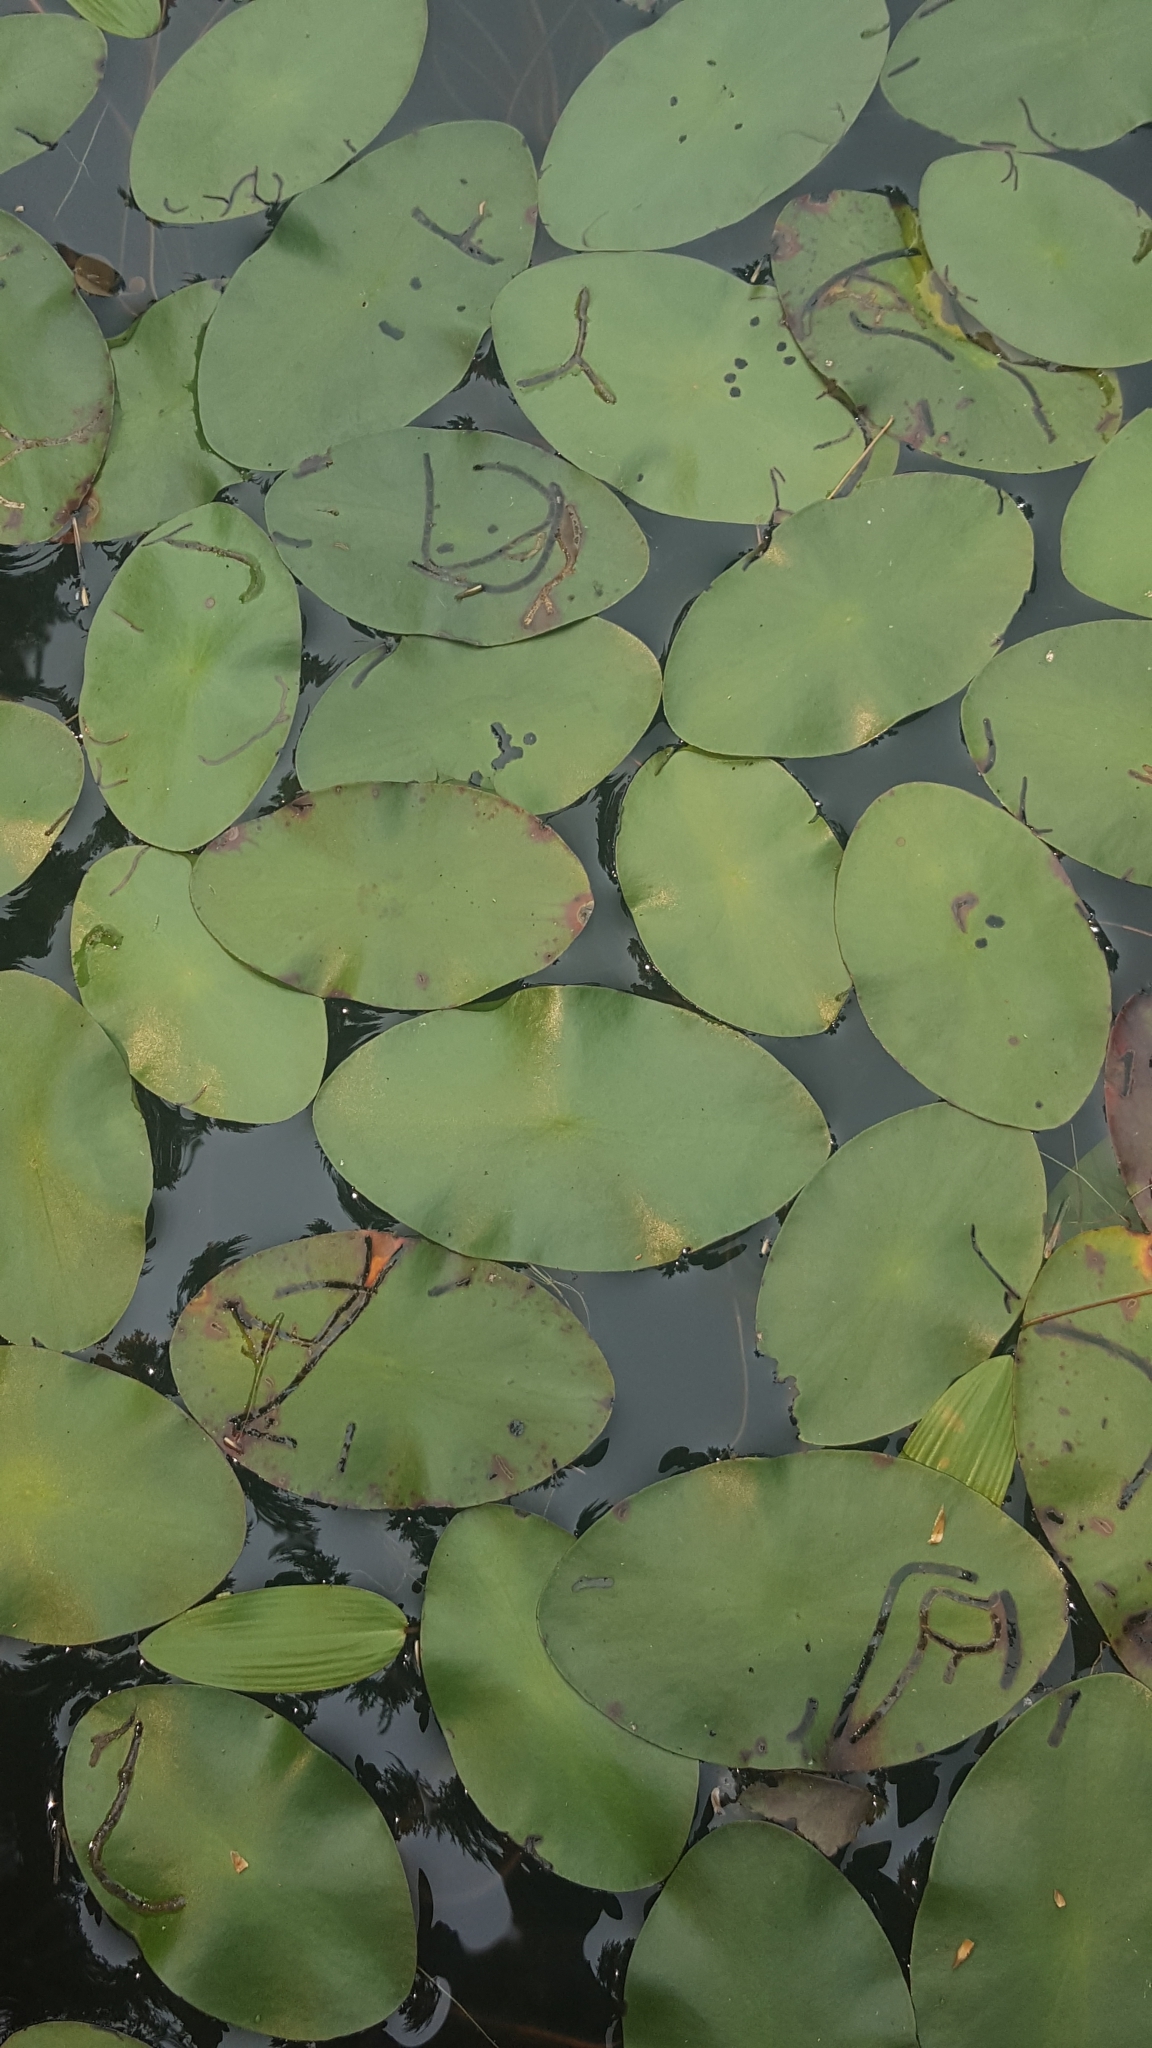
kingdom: Plantae
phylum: Tracheophyta
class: Magnoliopsida
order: Nymphaeales
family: Cabombaceae
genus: Brasenia
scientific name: Brasenia schreberi
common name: Water-shield
